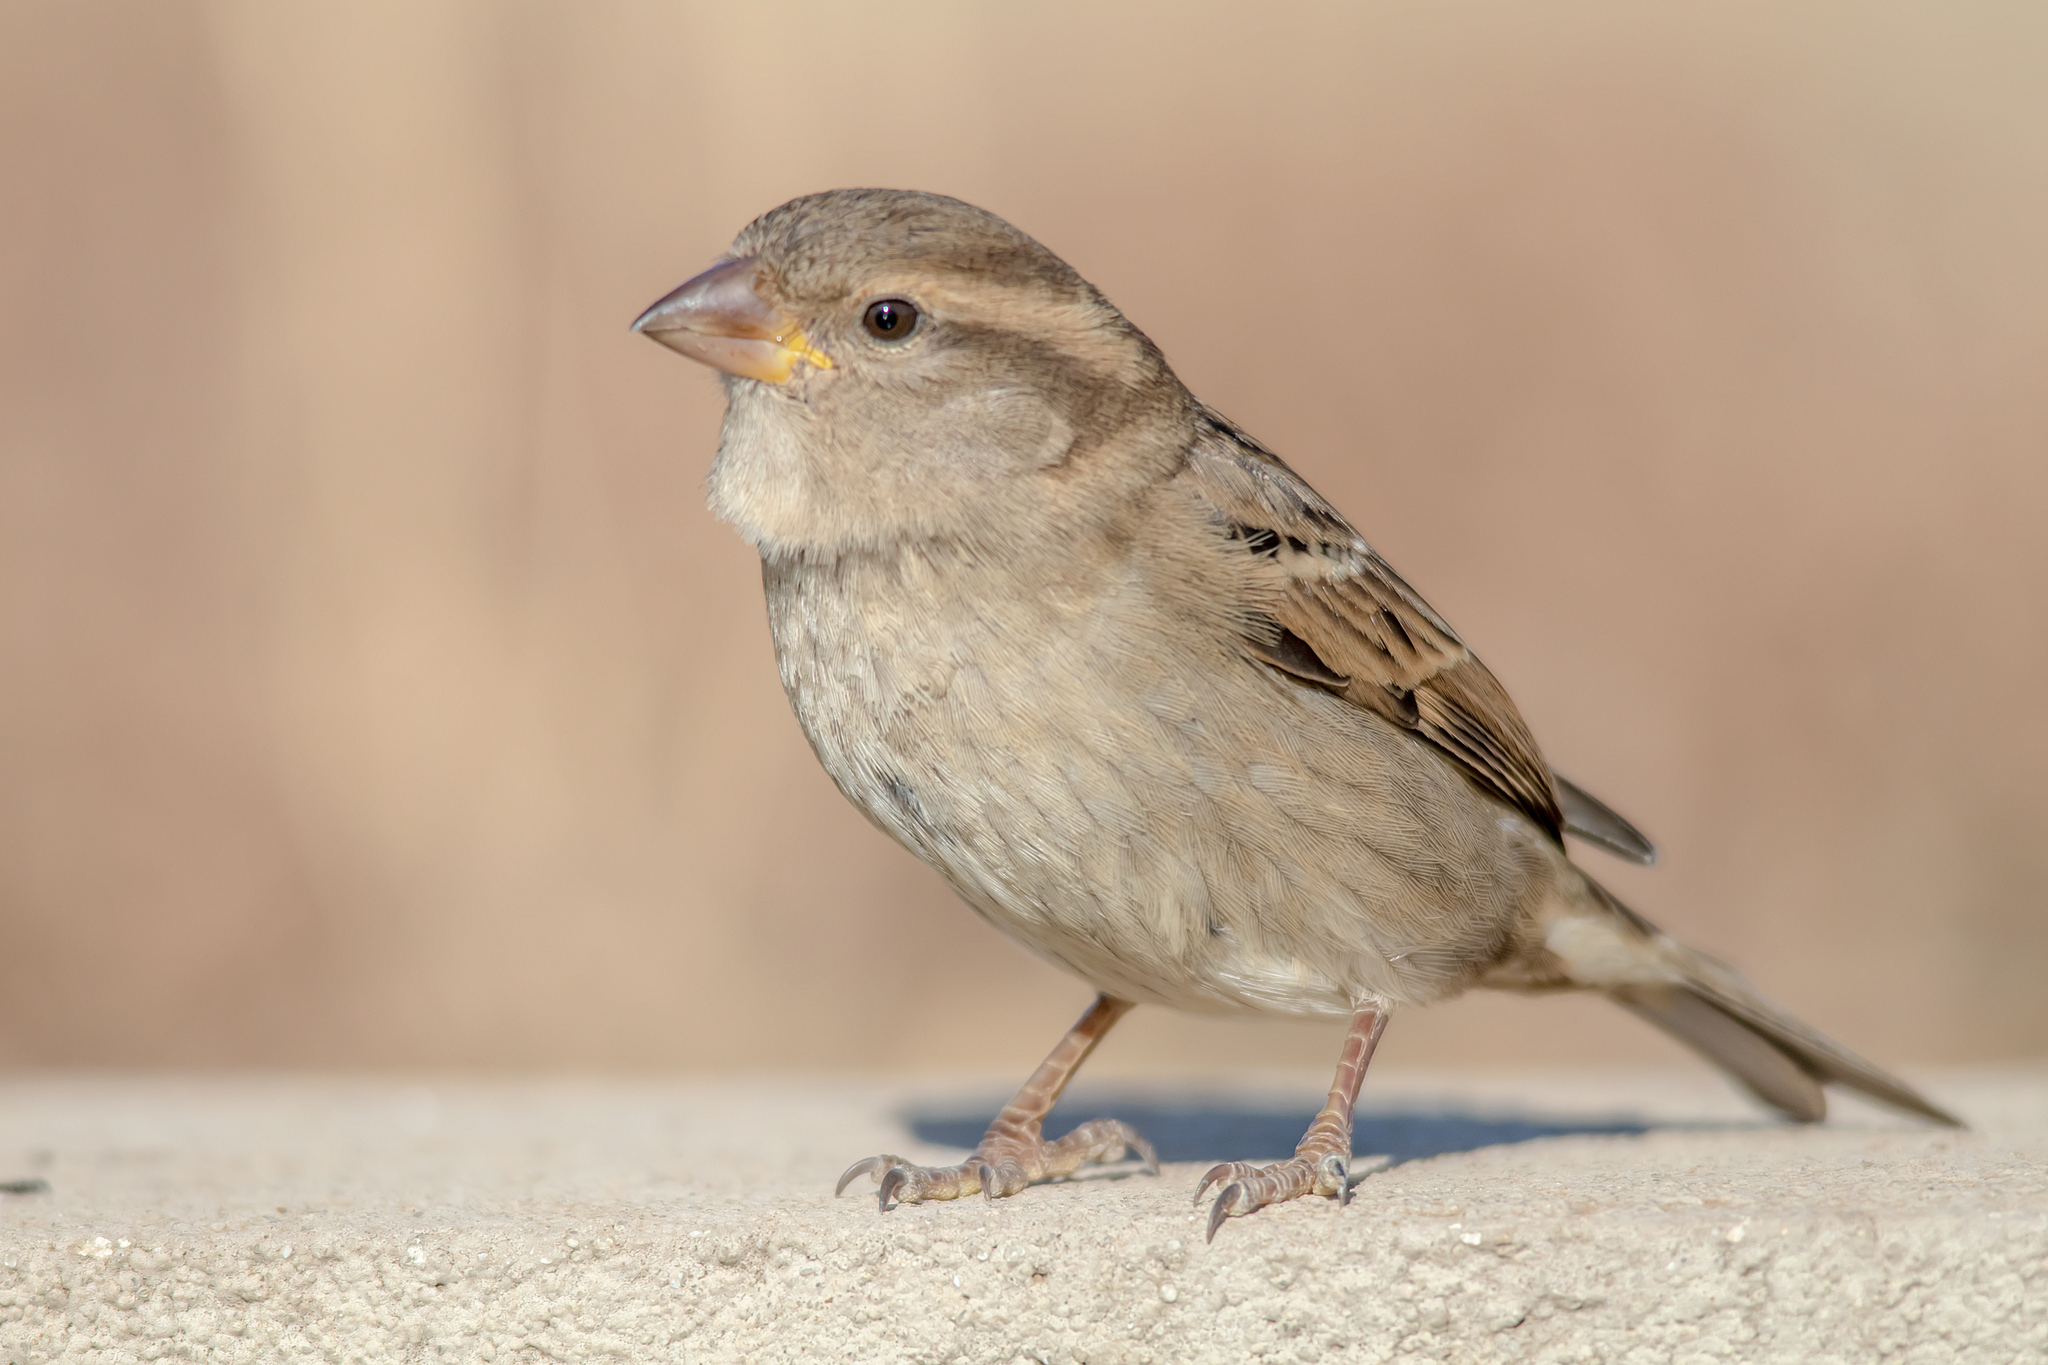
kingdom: Animalia
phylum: Chordata
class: Aves
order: Passeriformes
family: Passeridae
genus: Passer
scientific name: Passer domesticus
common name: House sparrow
